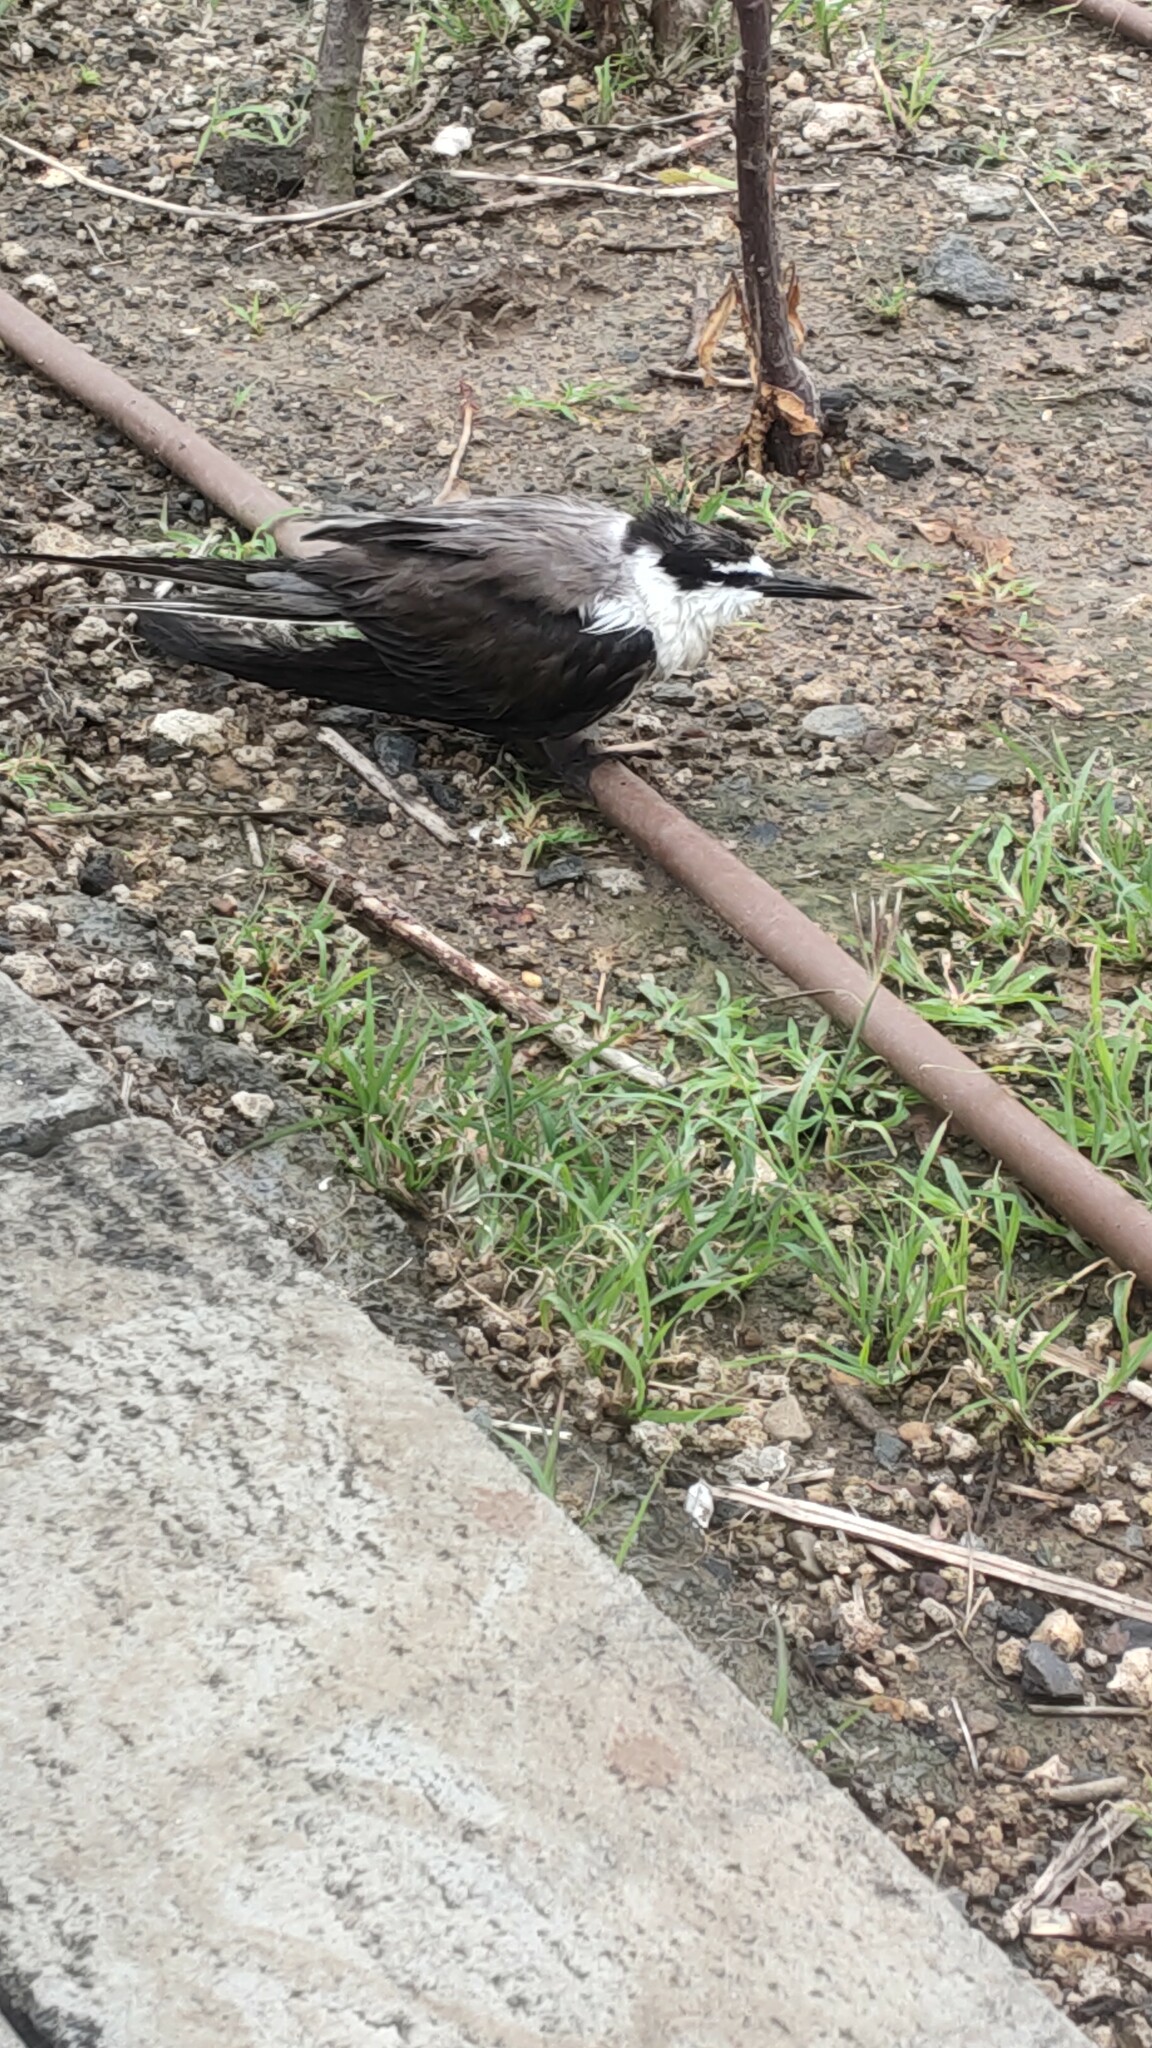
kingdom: Animalia
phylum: Chordata
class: Aves
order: Charadriiformes
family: Laridae
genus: Onychoprion
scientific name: Onychoprion anaethetus
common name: Bridled tern
